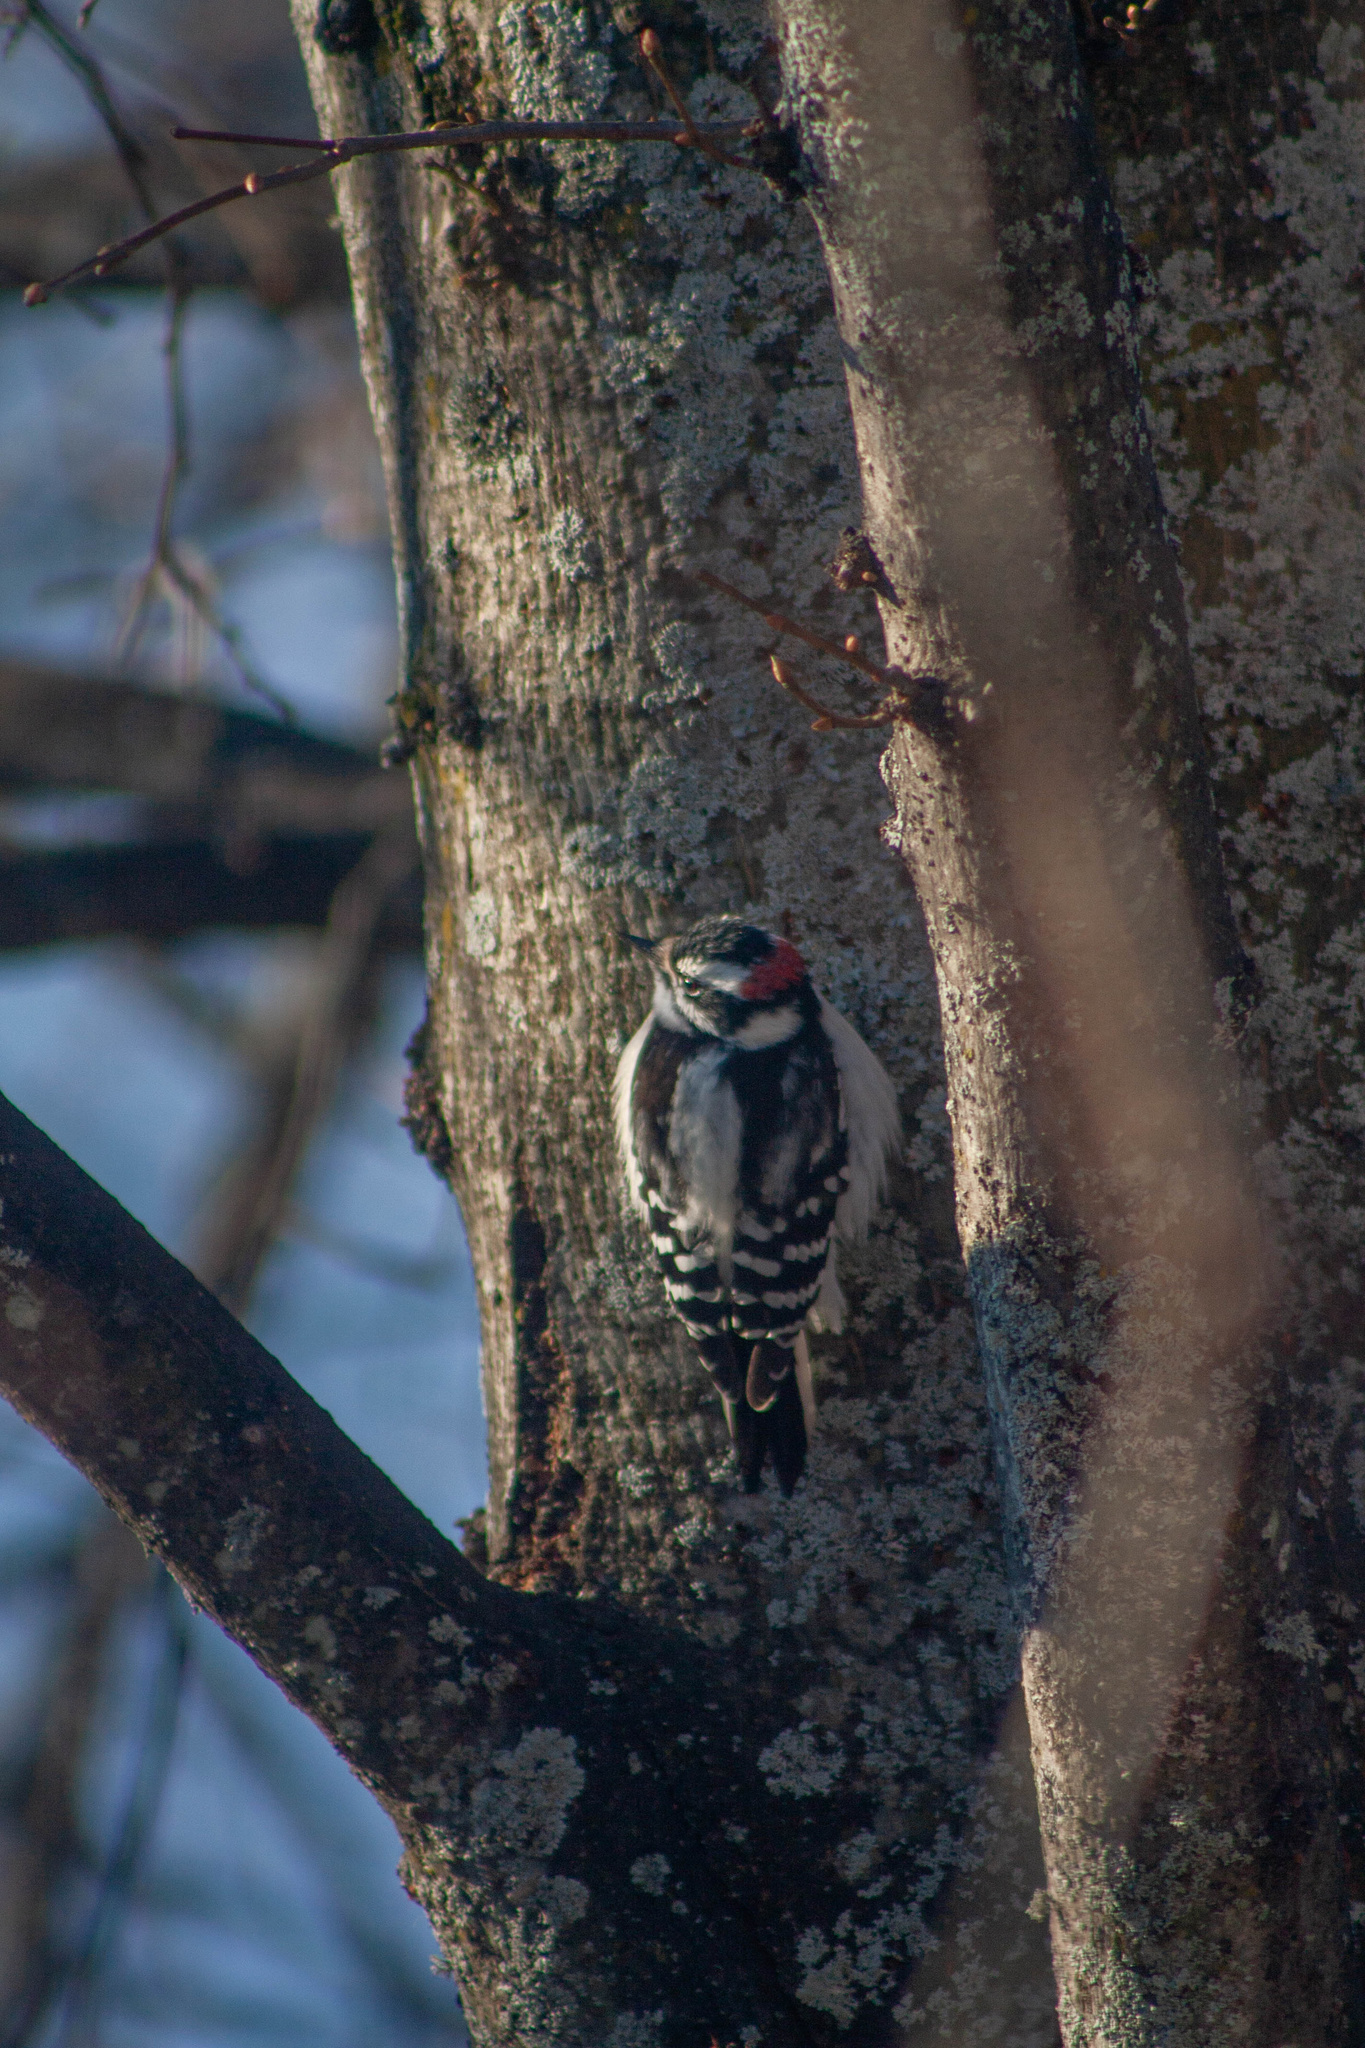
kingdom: Animalia
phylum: Chordata
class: Aves
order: Piciformes
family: Picidae
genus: Dryobates
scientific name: Dryobates pubescens
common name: Downy woodpecker
